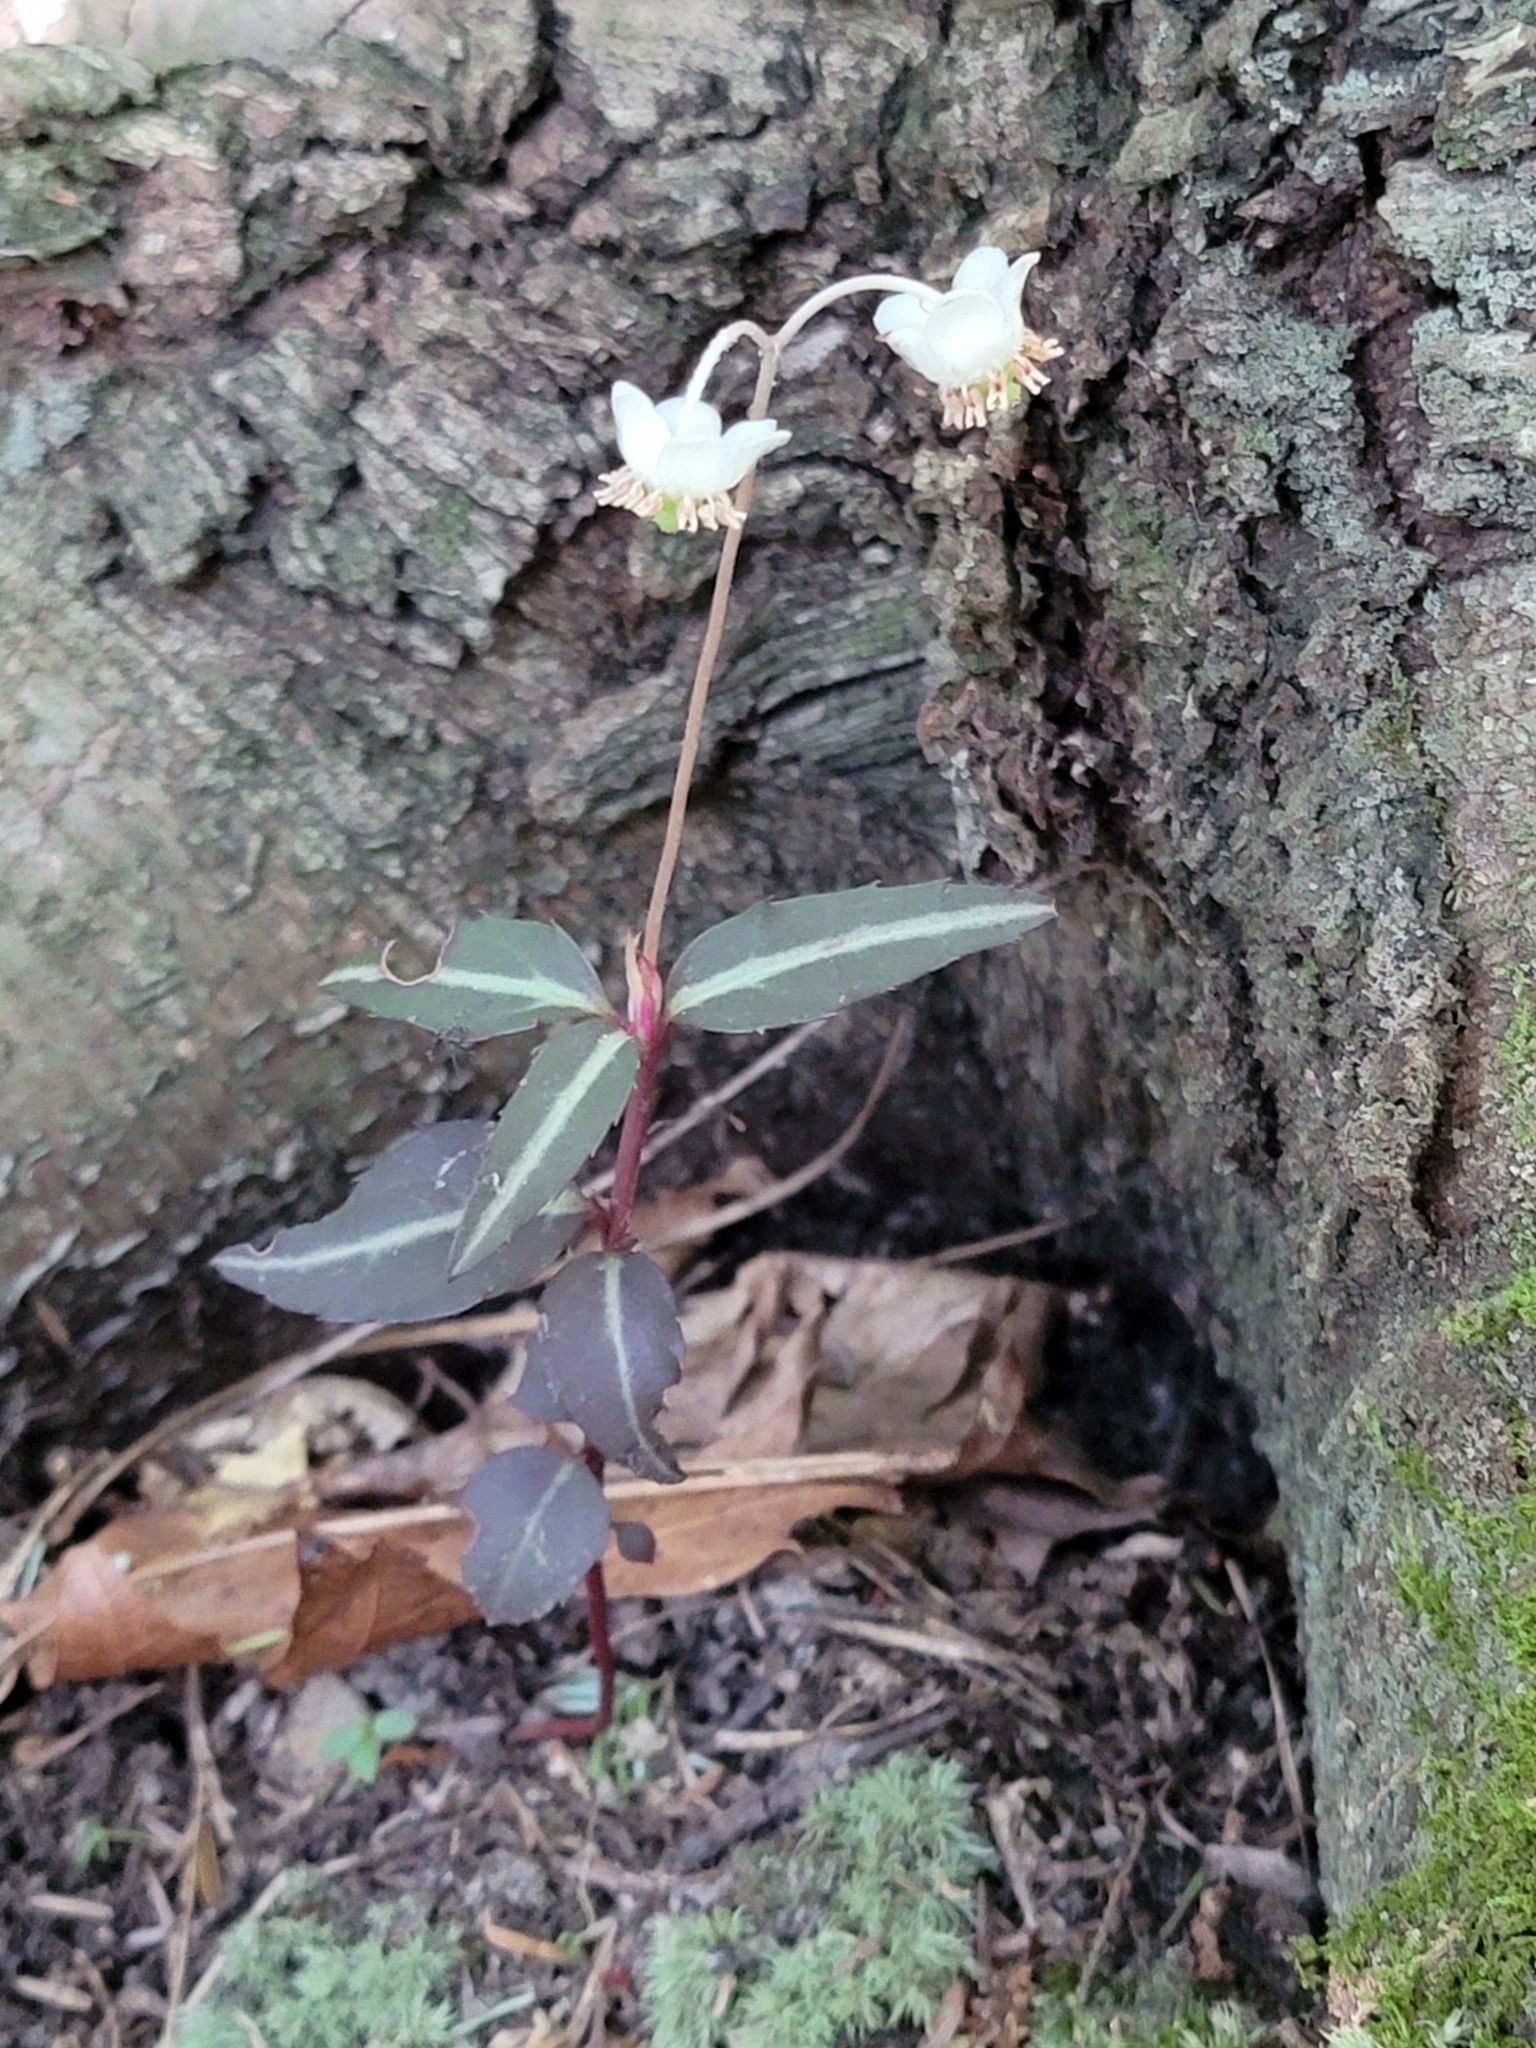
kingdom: Plantae
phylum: Tracheophyta
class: Magnoliopsida
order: Ericales
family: Ericaceae
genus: Chimaphila
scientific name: Chimaphila maculata
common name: Spotted pipsissewa
